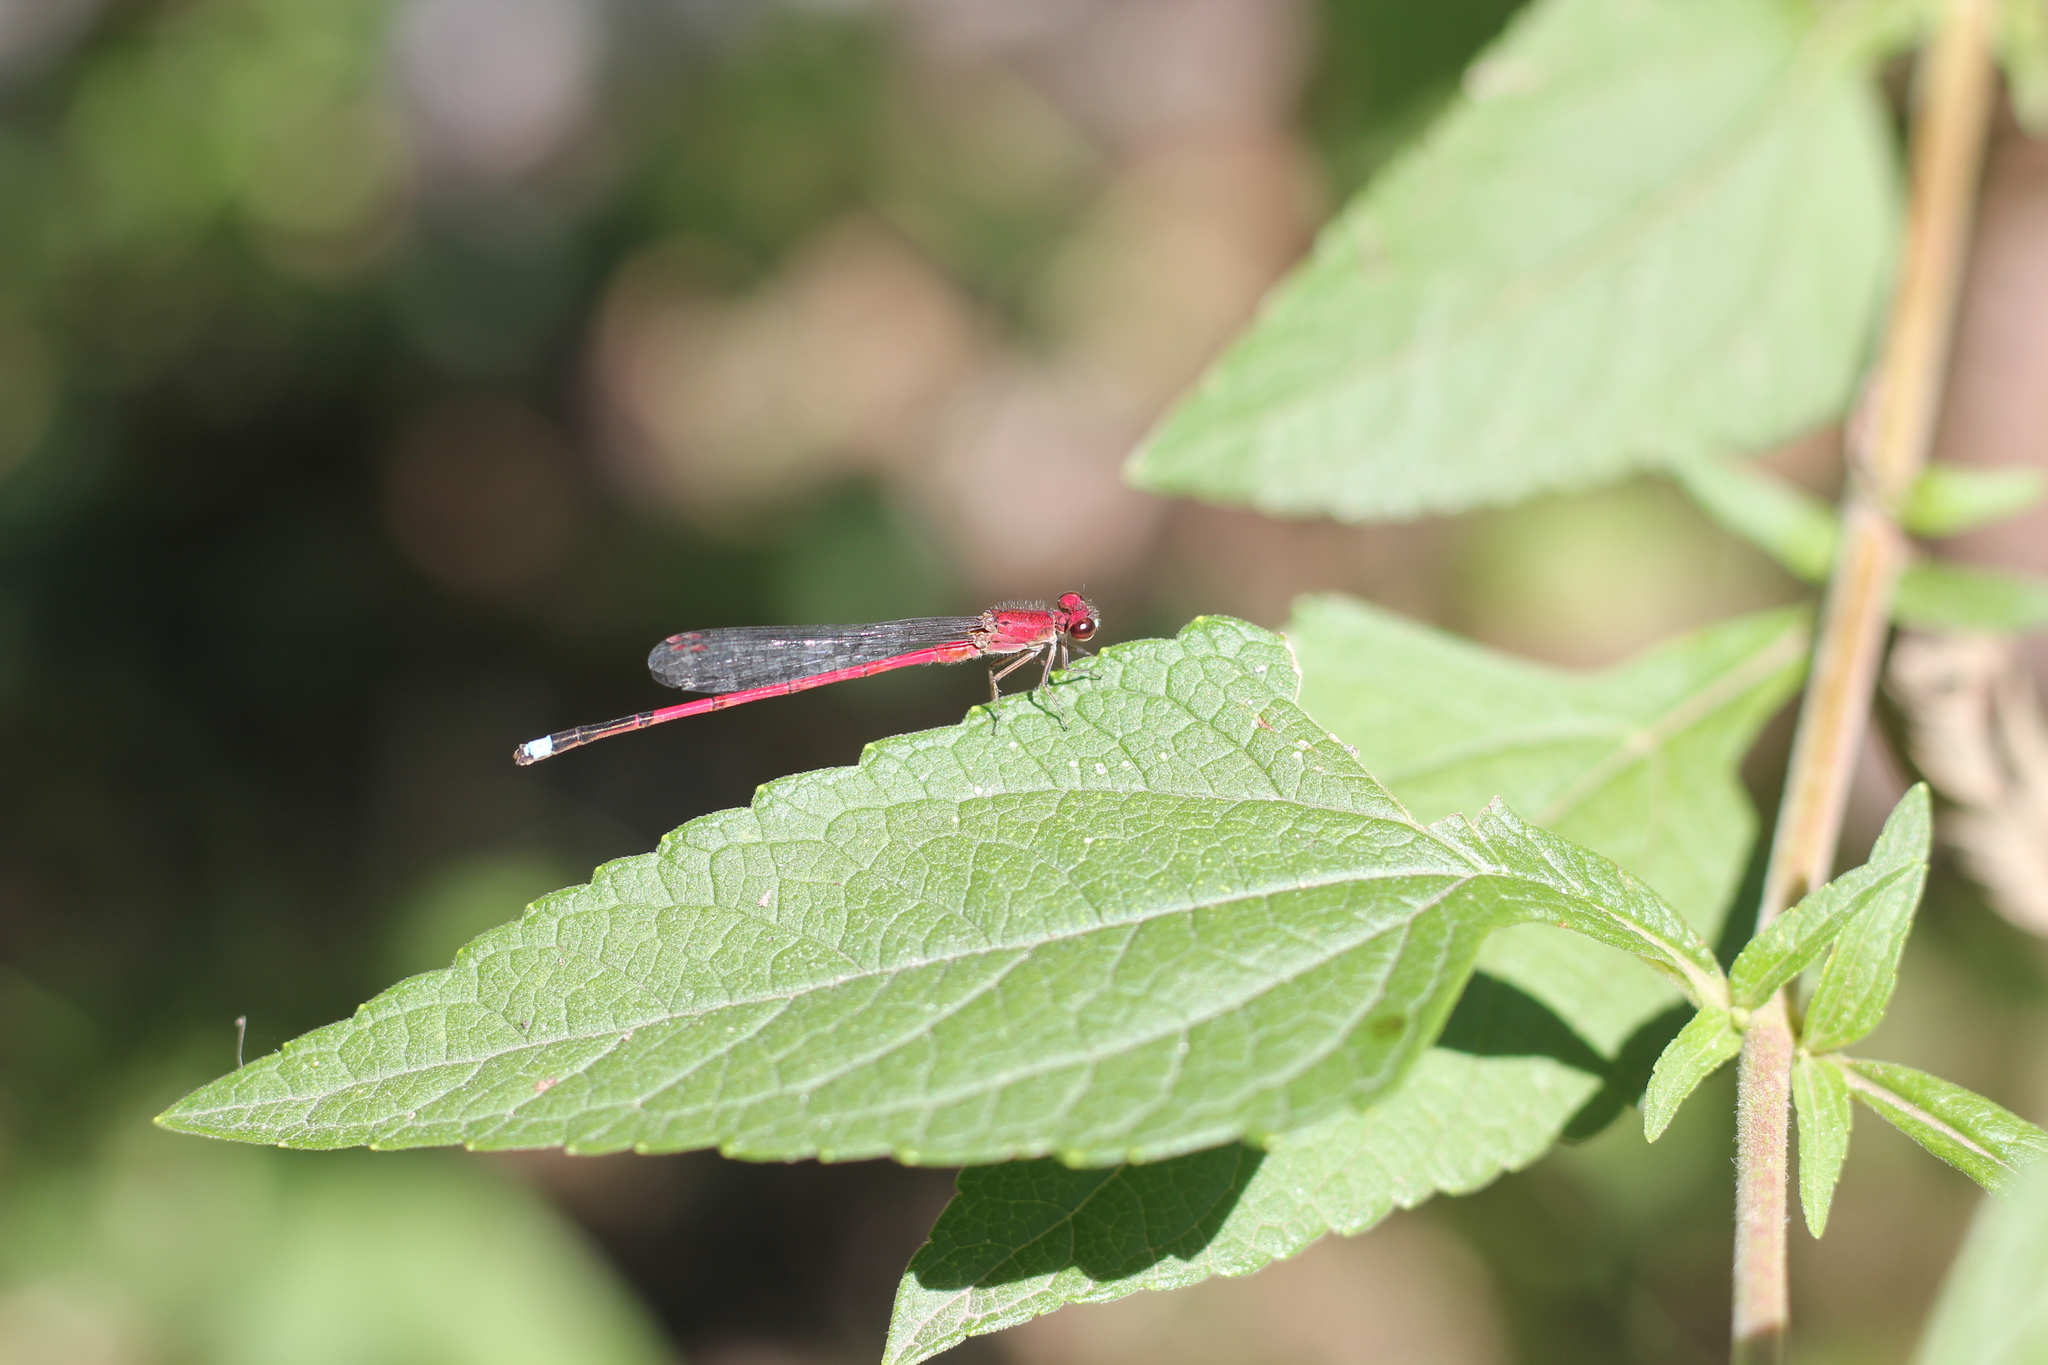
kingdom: Animalia
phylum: Arthropoda
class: Insecta
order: Odonata
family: Coenagrionidae
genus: Oxyagrion
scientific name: Oxyagrion terminale
